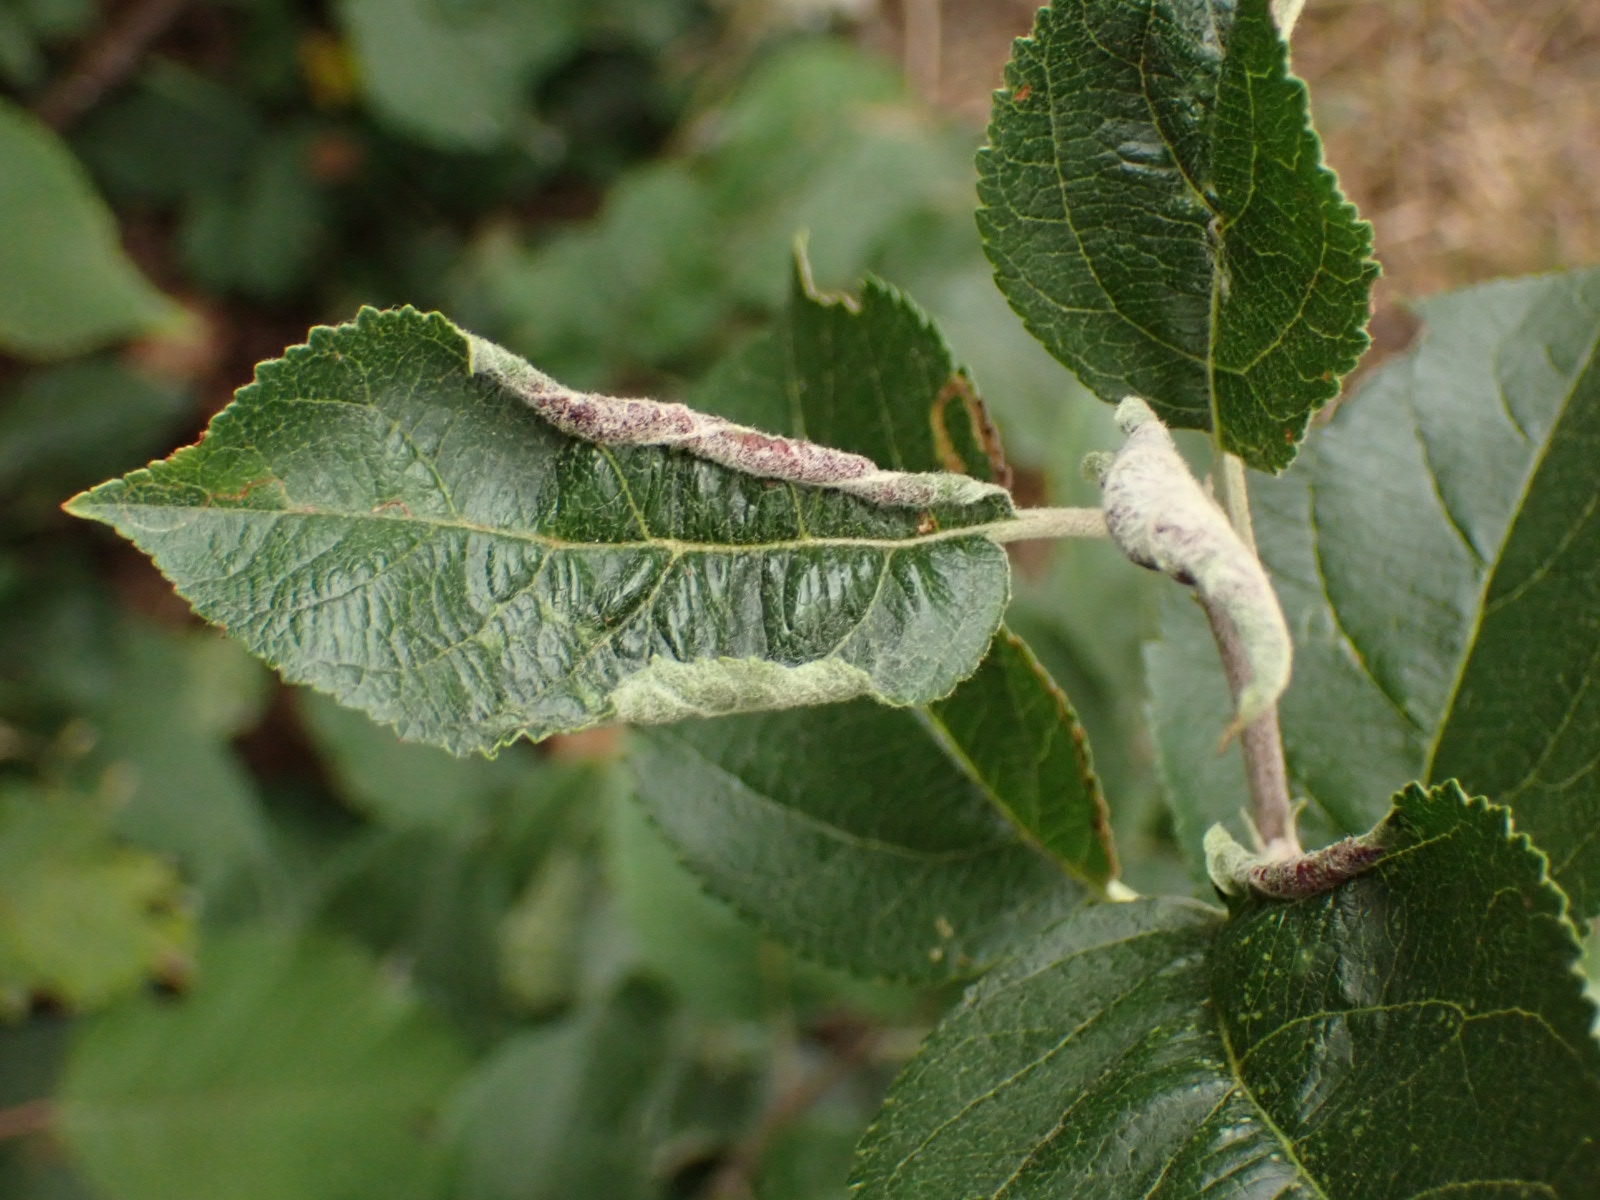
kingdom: Animalia
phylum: Arthropoda
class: Insecta
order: Diptera
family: Cecidomyiidae
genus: Dasineura
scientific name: Dasineura mali
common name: Apple leaf midge
